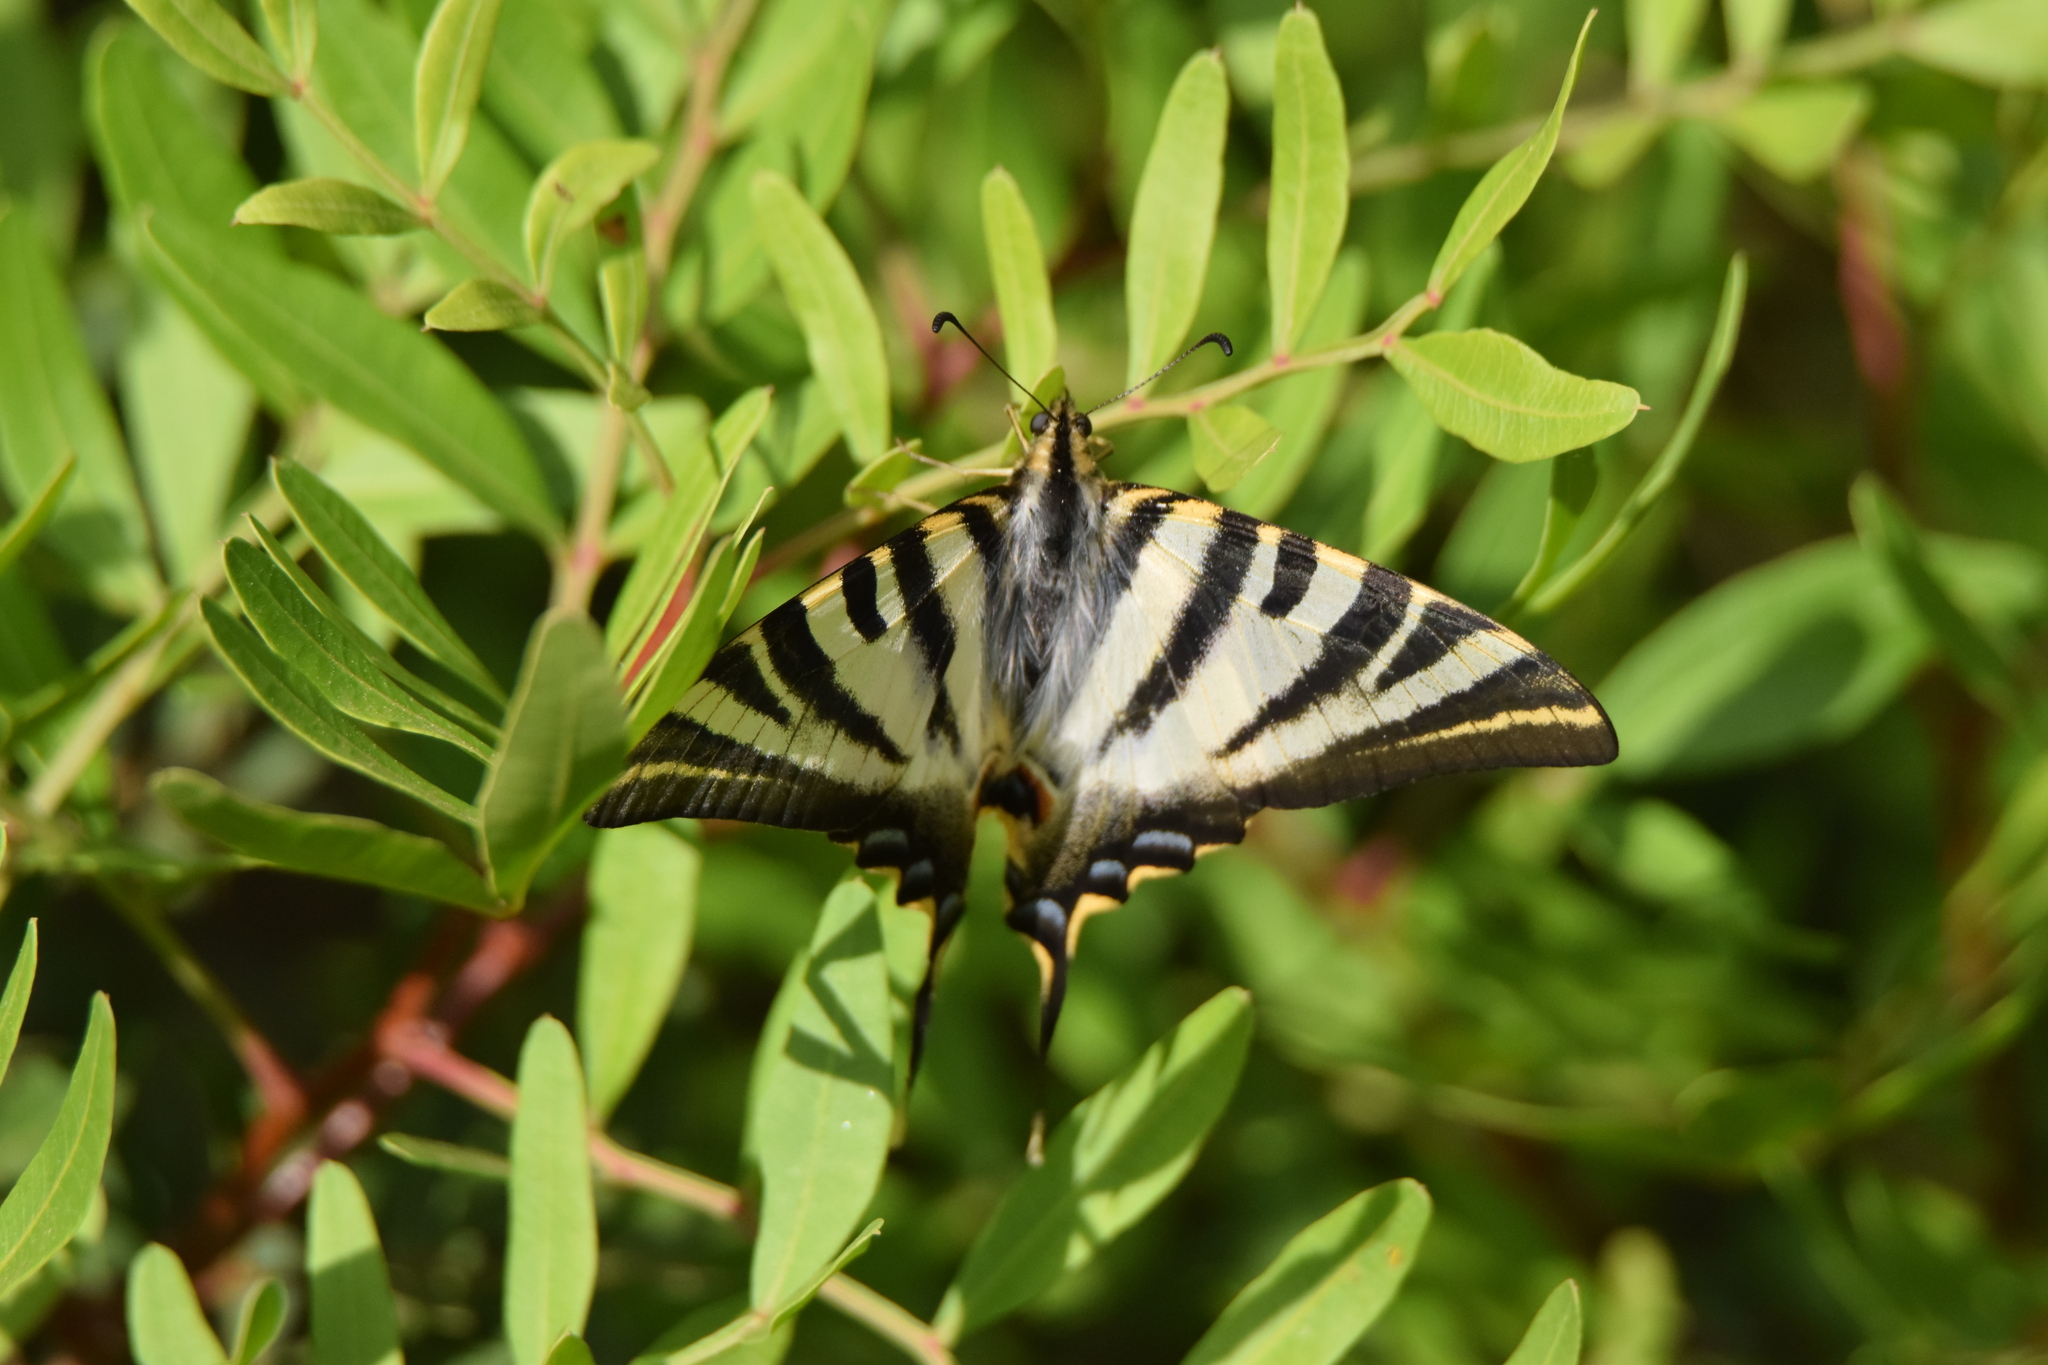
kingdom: Animalia
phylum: Arthropoda
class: Insecta
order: Lepidoptera
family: Papilionidae
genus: Iphiclides
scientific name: Iphiclides feisthamelii
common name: Iberian scarce swallowtail
